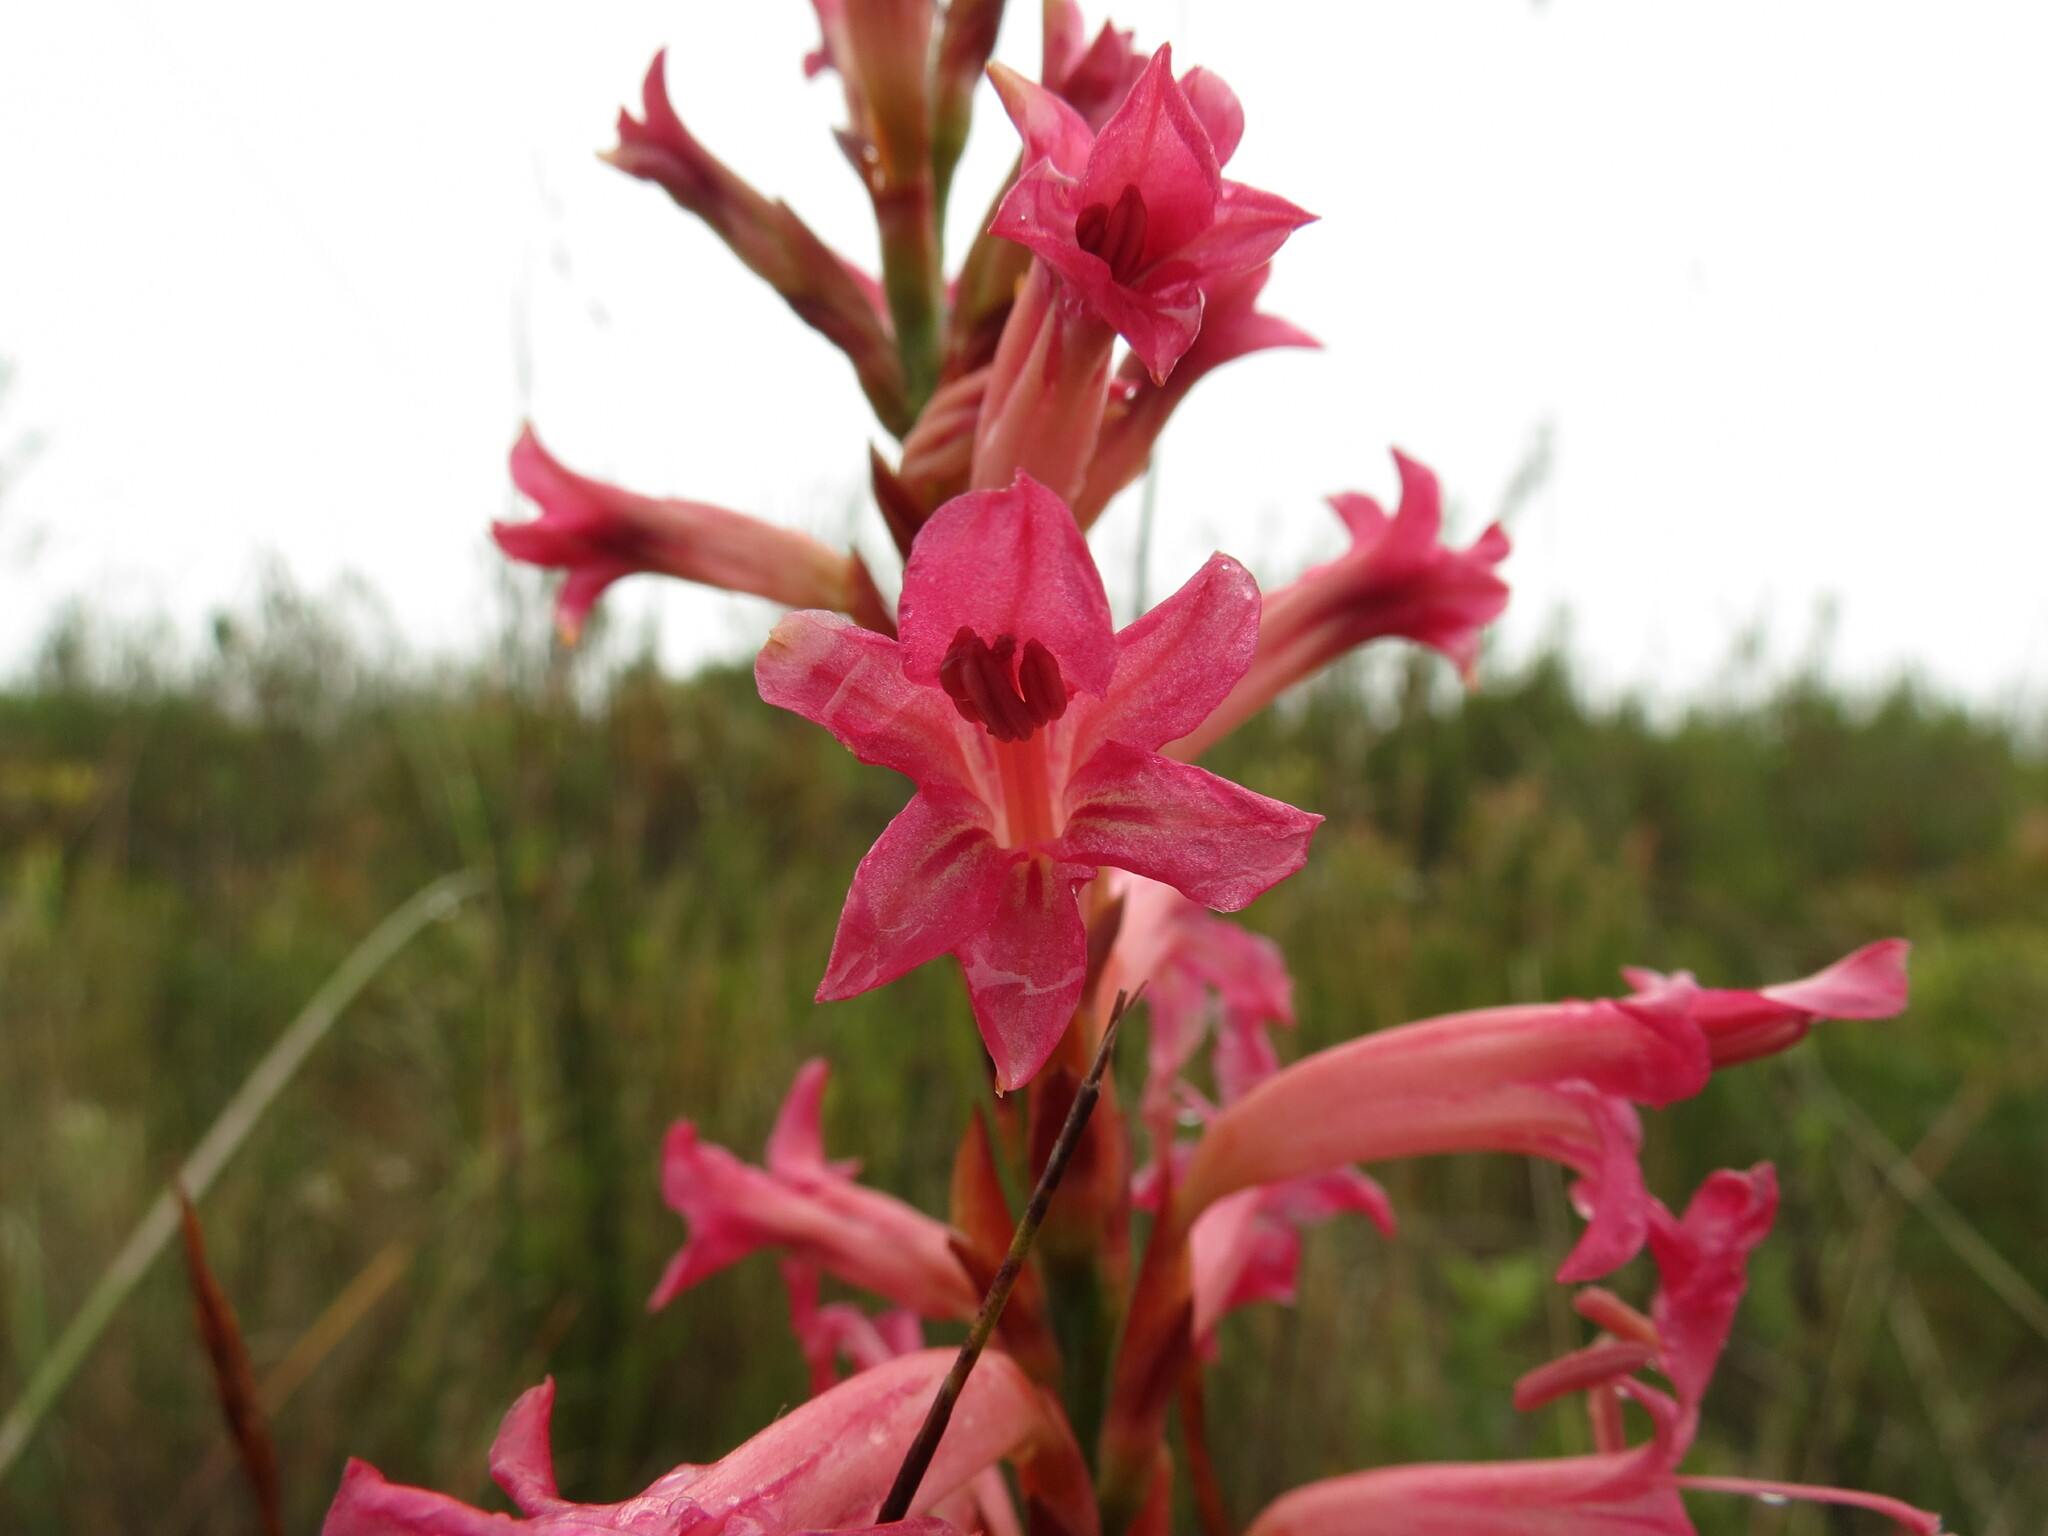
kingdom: Plantae
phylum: Tracheophyta
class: Liliopsida
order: Asparagales
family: Iridaceae
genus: Tritoniopsis
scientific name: Tritoniopsis triticea
